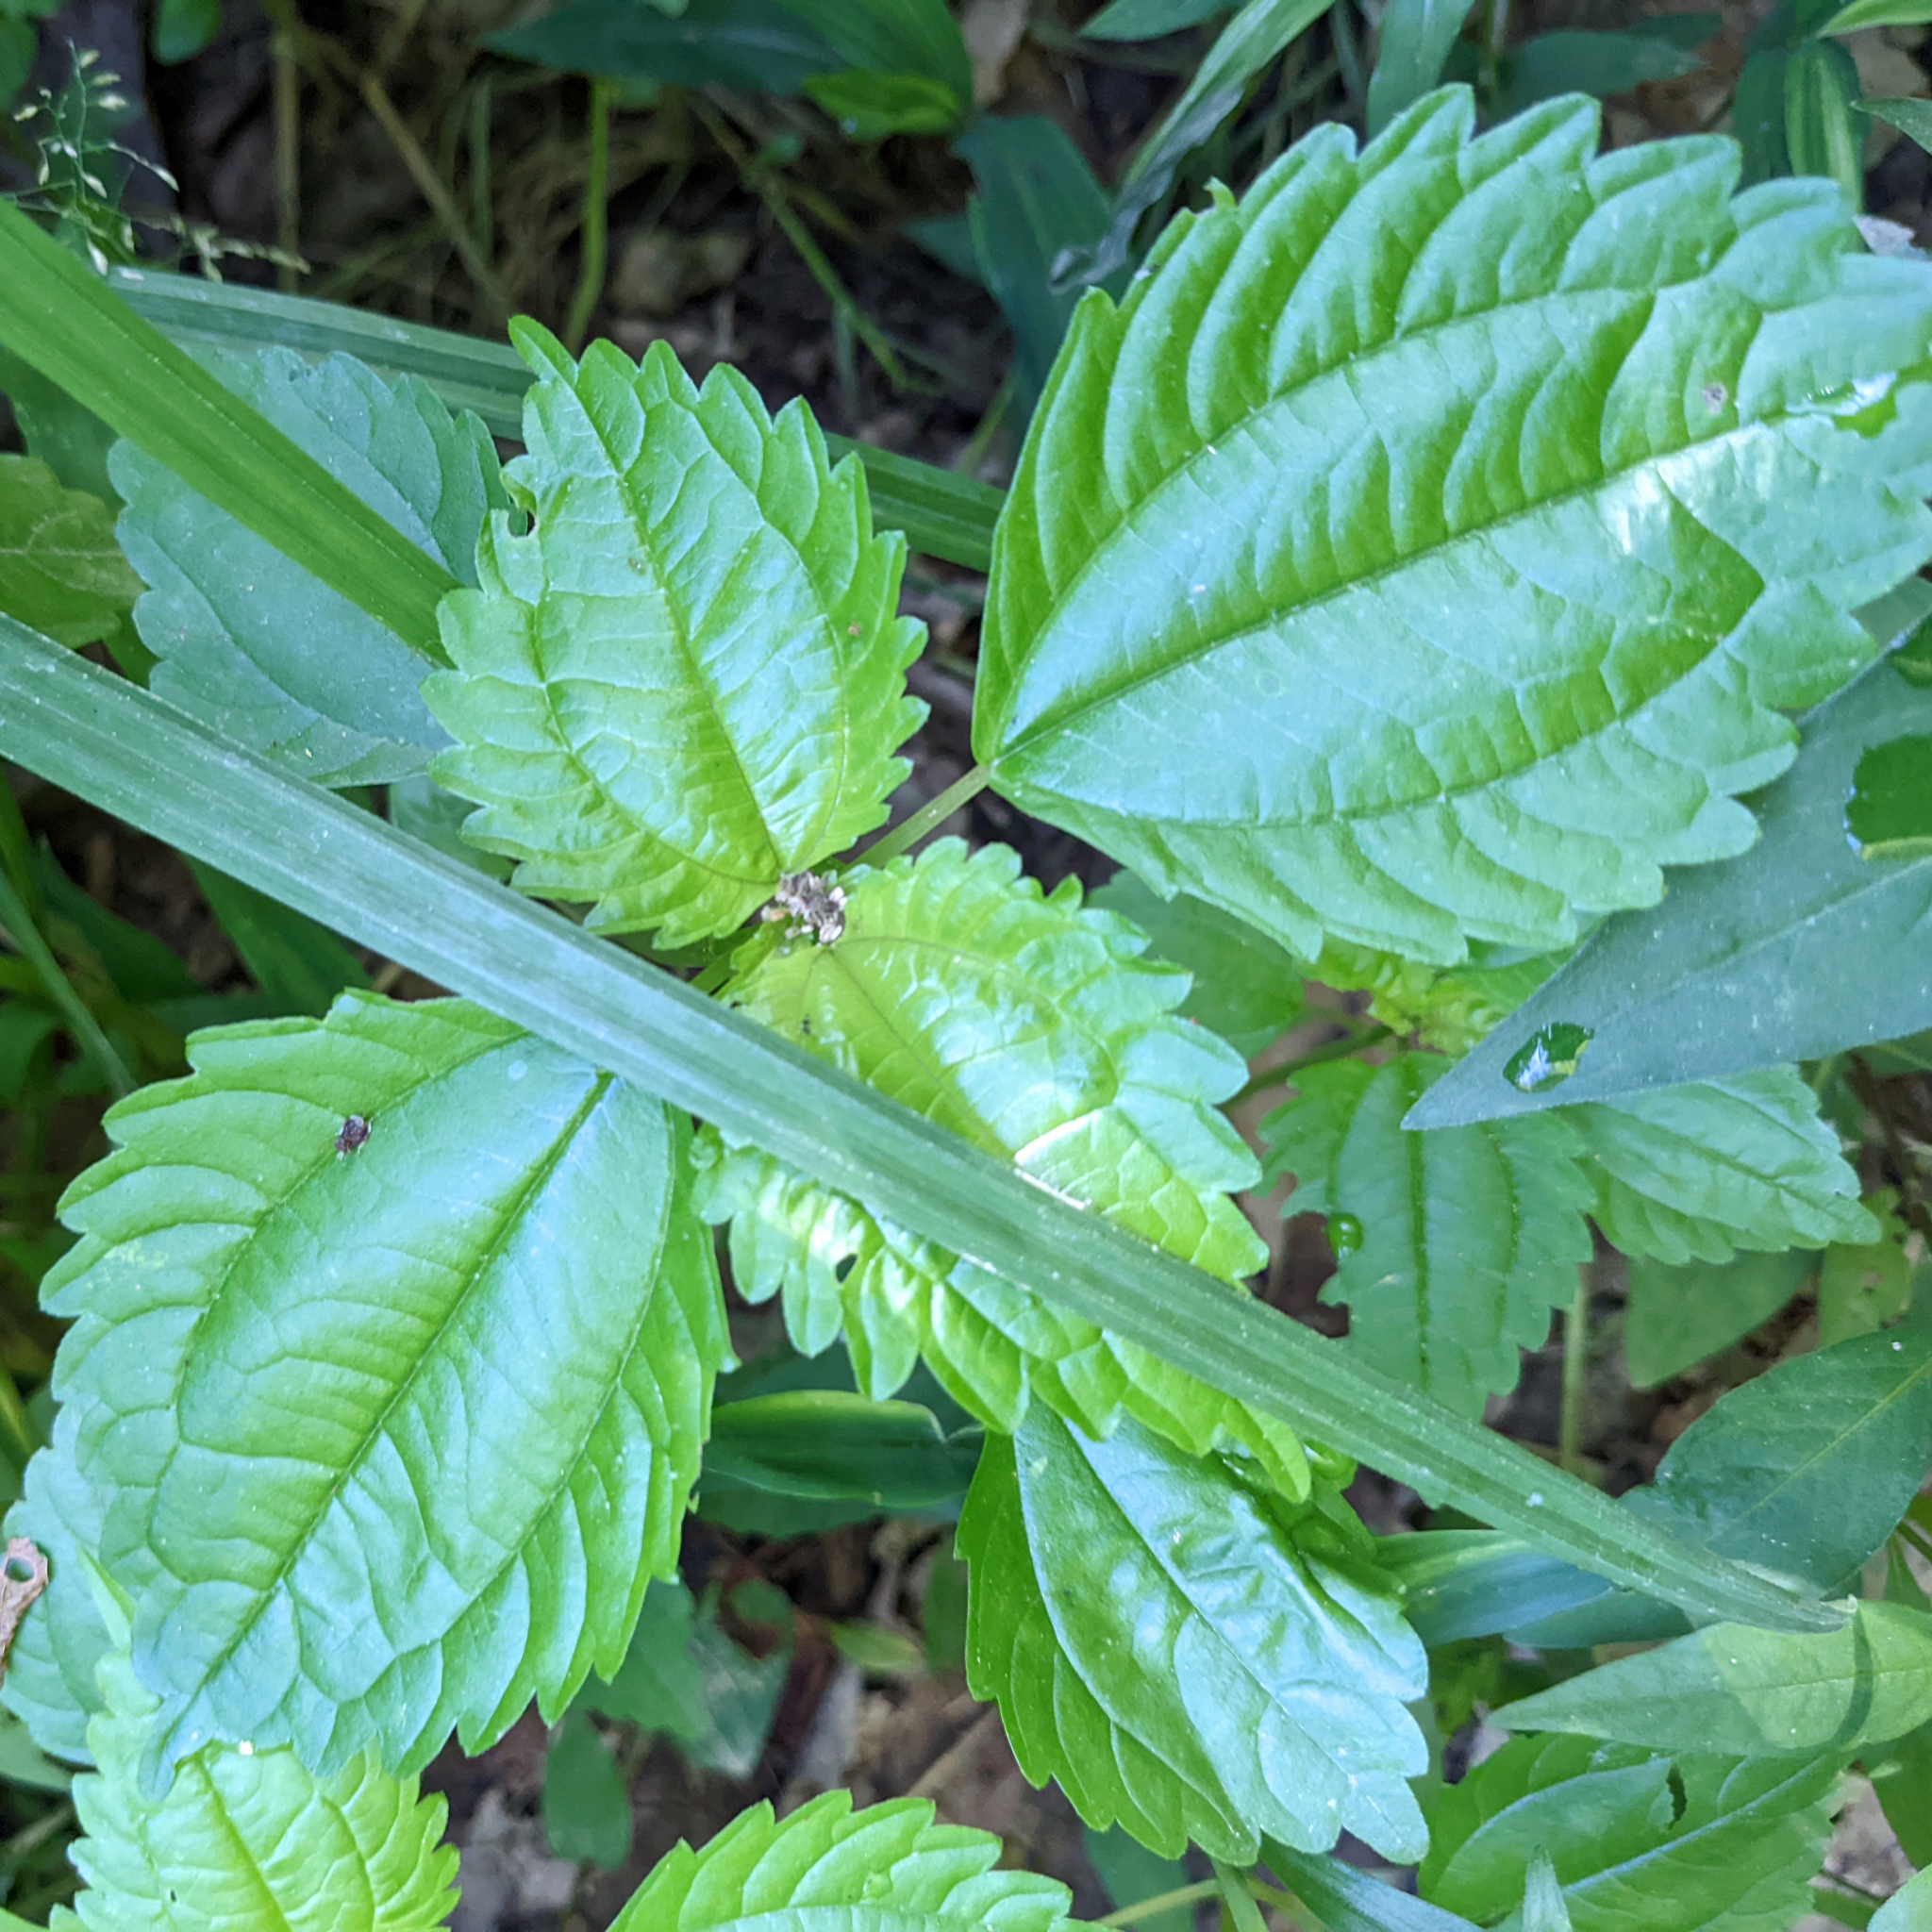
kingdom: Plantae
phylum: Tracheophyta
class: Magnoliopsida
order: Rosales
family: Urticaceae
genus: Pilea
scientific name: Pilea pumila
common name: Clearweed
